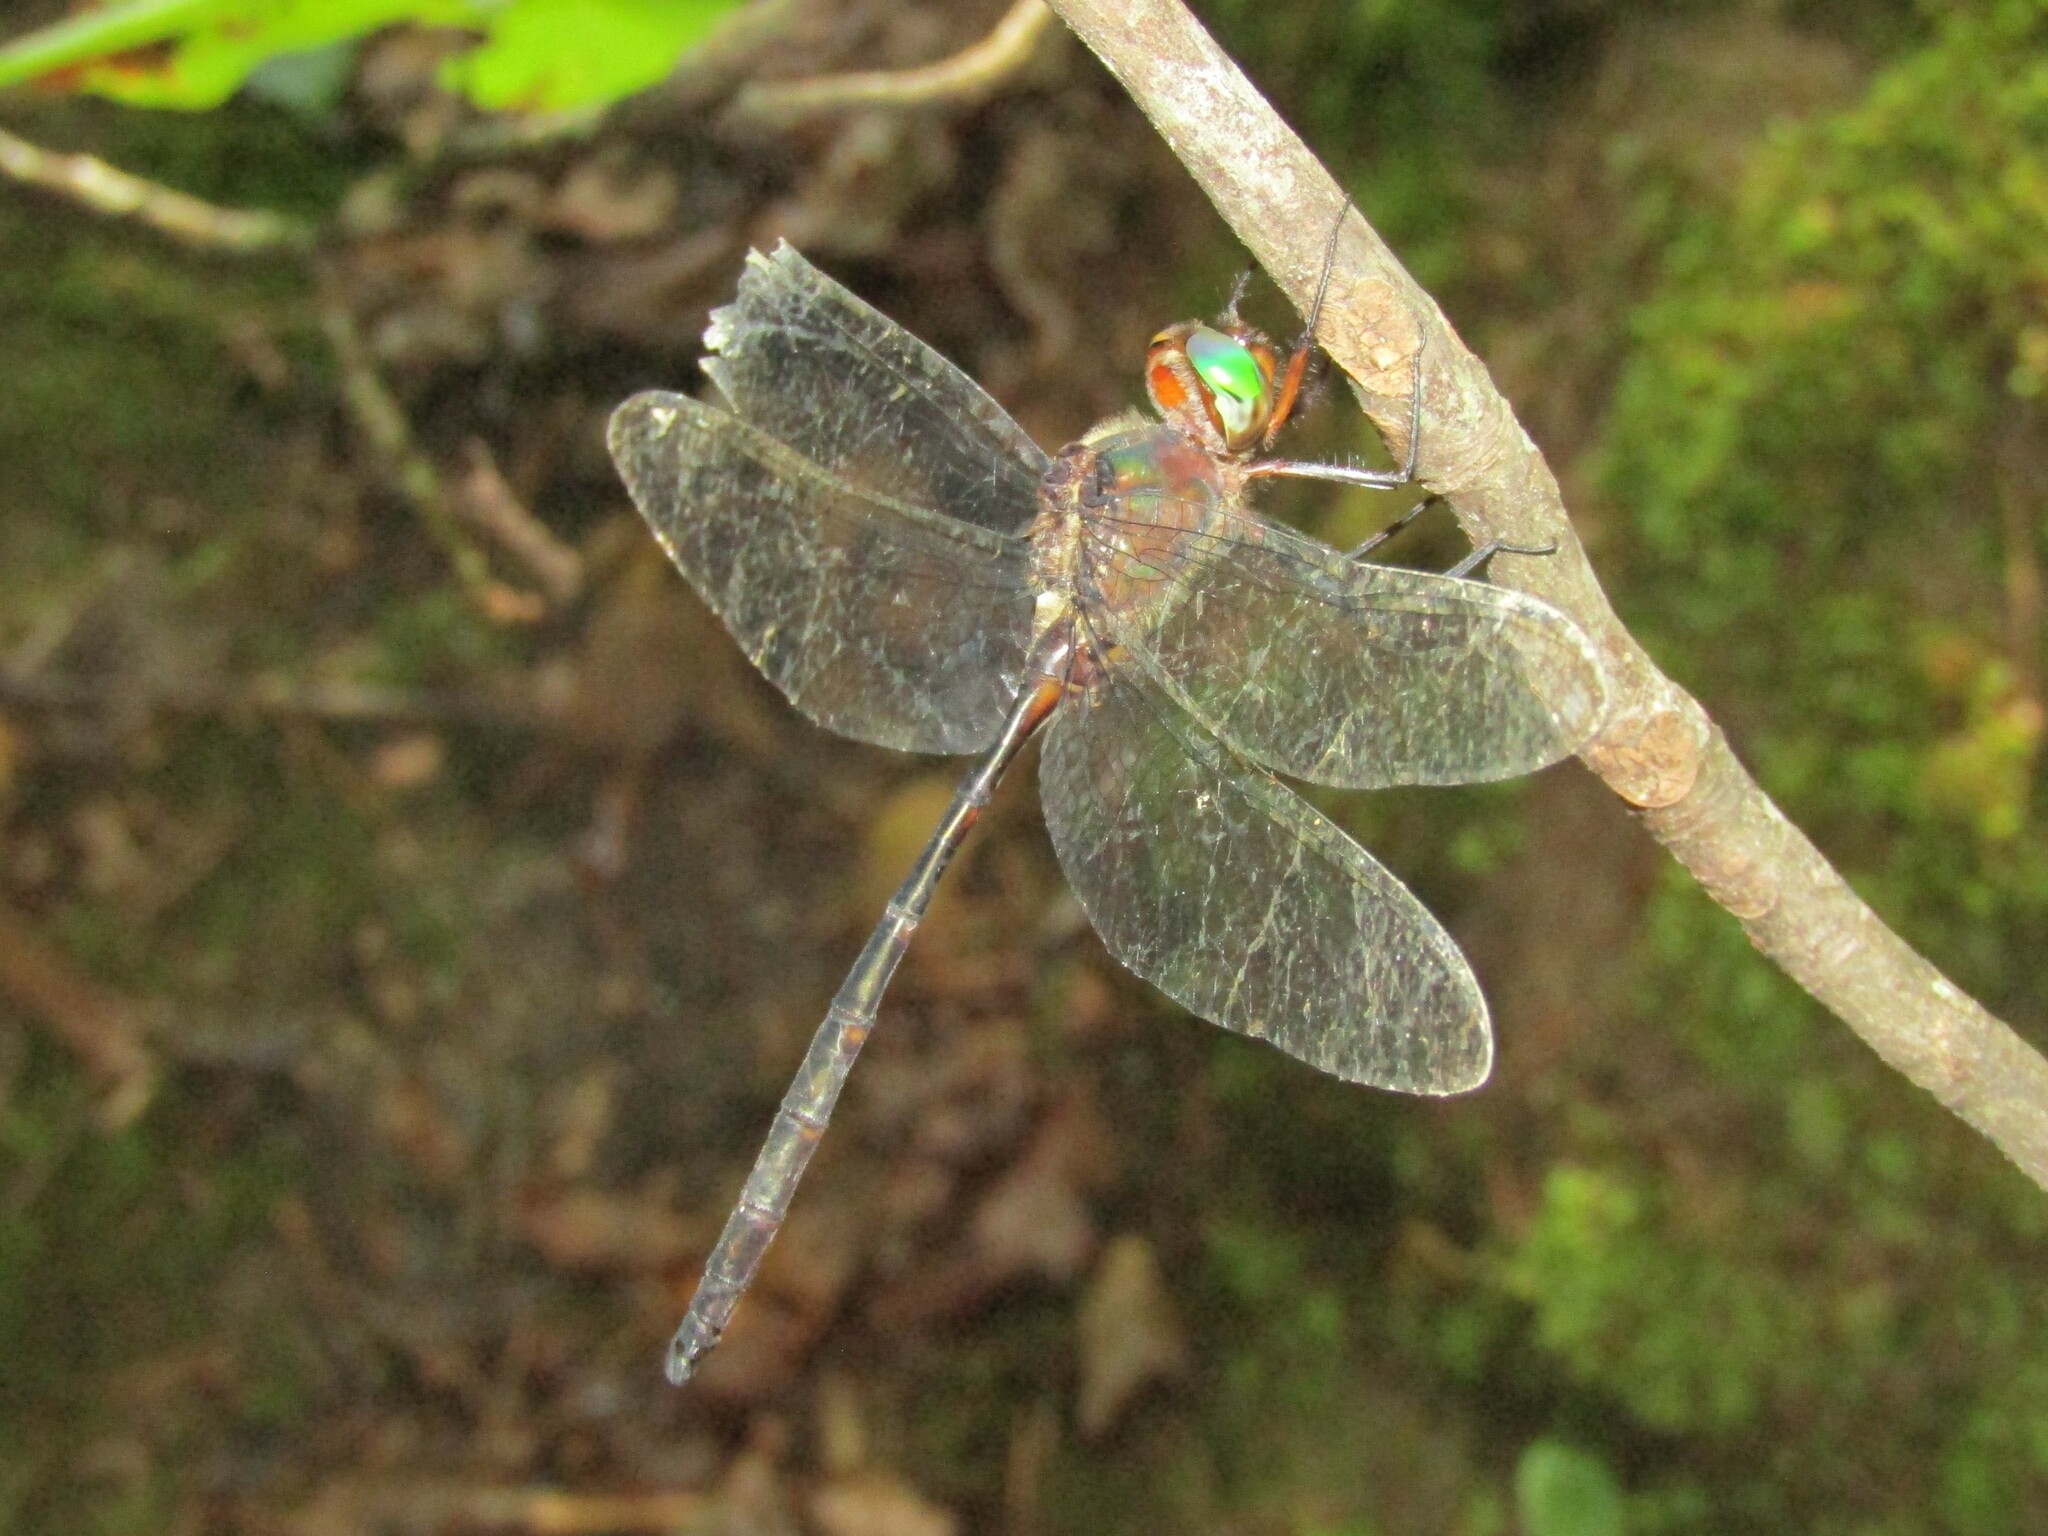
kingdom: Animalia
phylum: Arthropoda
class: Insecta
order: Odonata
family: Corduliidae
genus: Somatochlora
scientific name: Somatochlora linearis
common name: Mocha emerald
